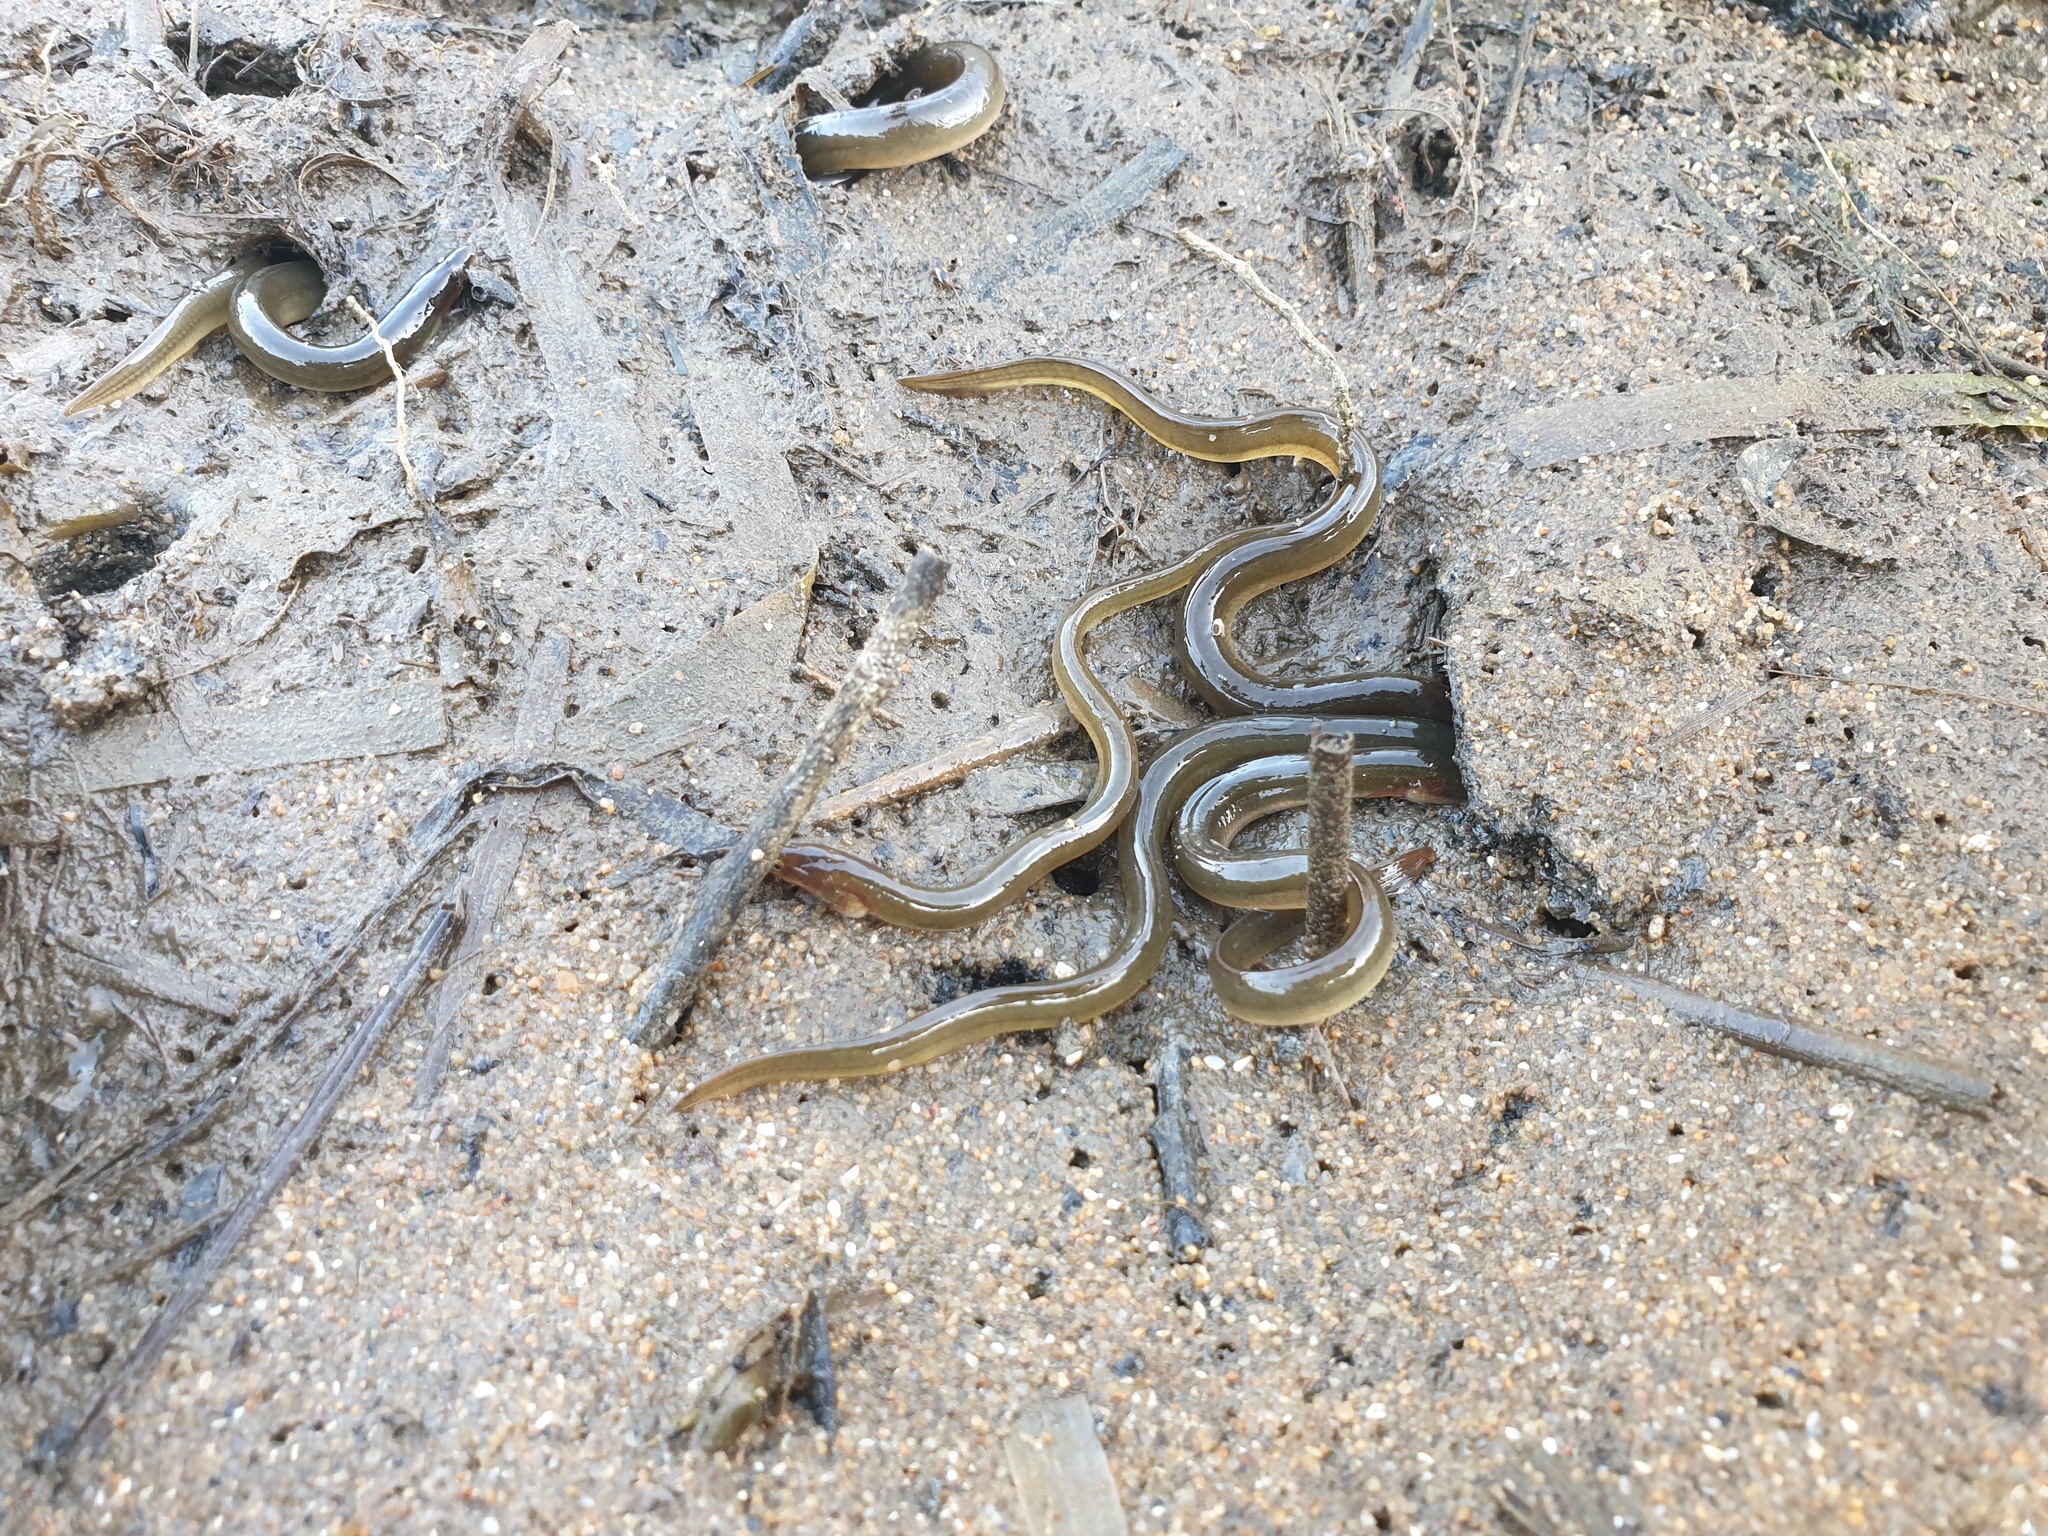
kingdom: Animalia
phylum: Chordata
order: Anguilliformes
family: Anguillidae
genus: Anguilla
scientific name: Anguilla anguilla
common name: European eel
